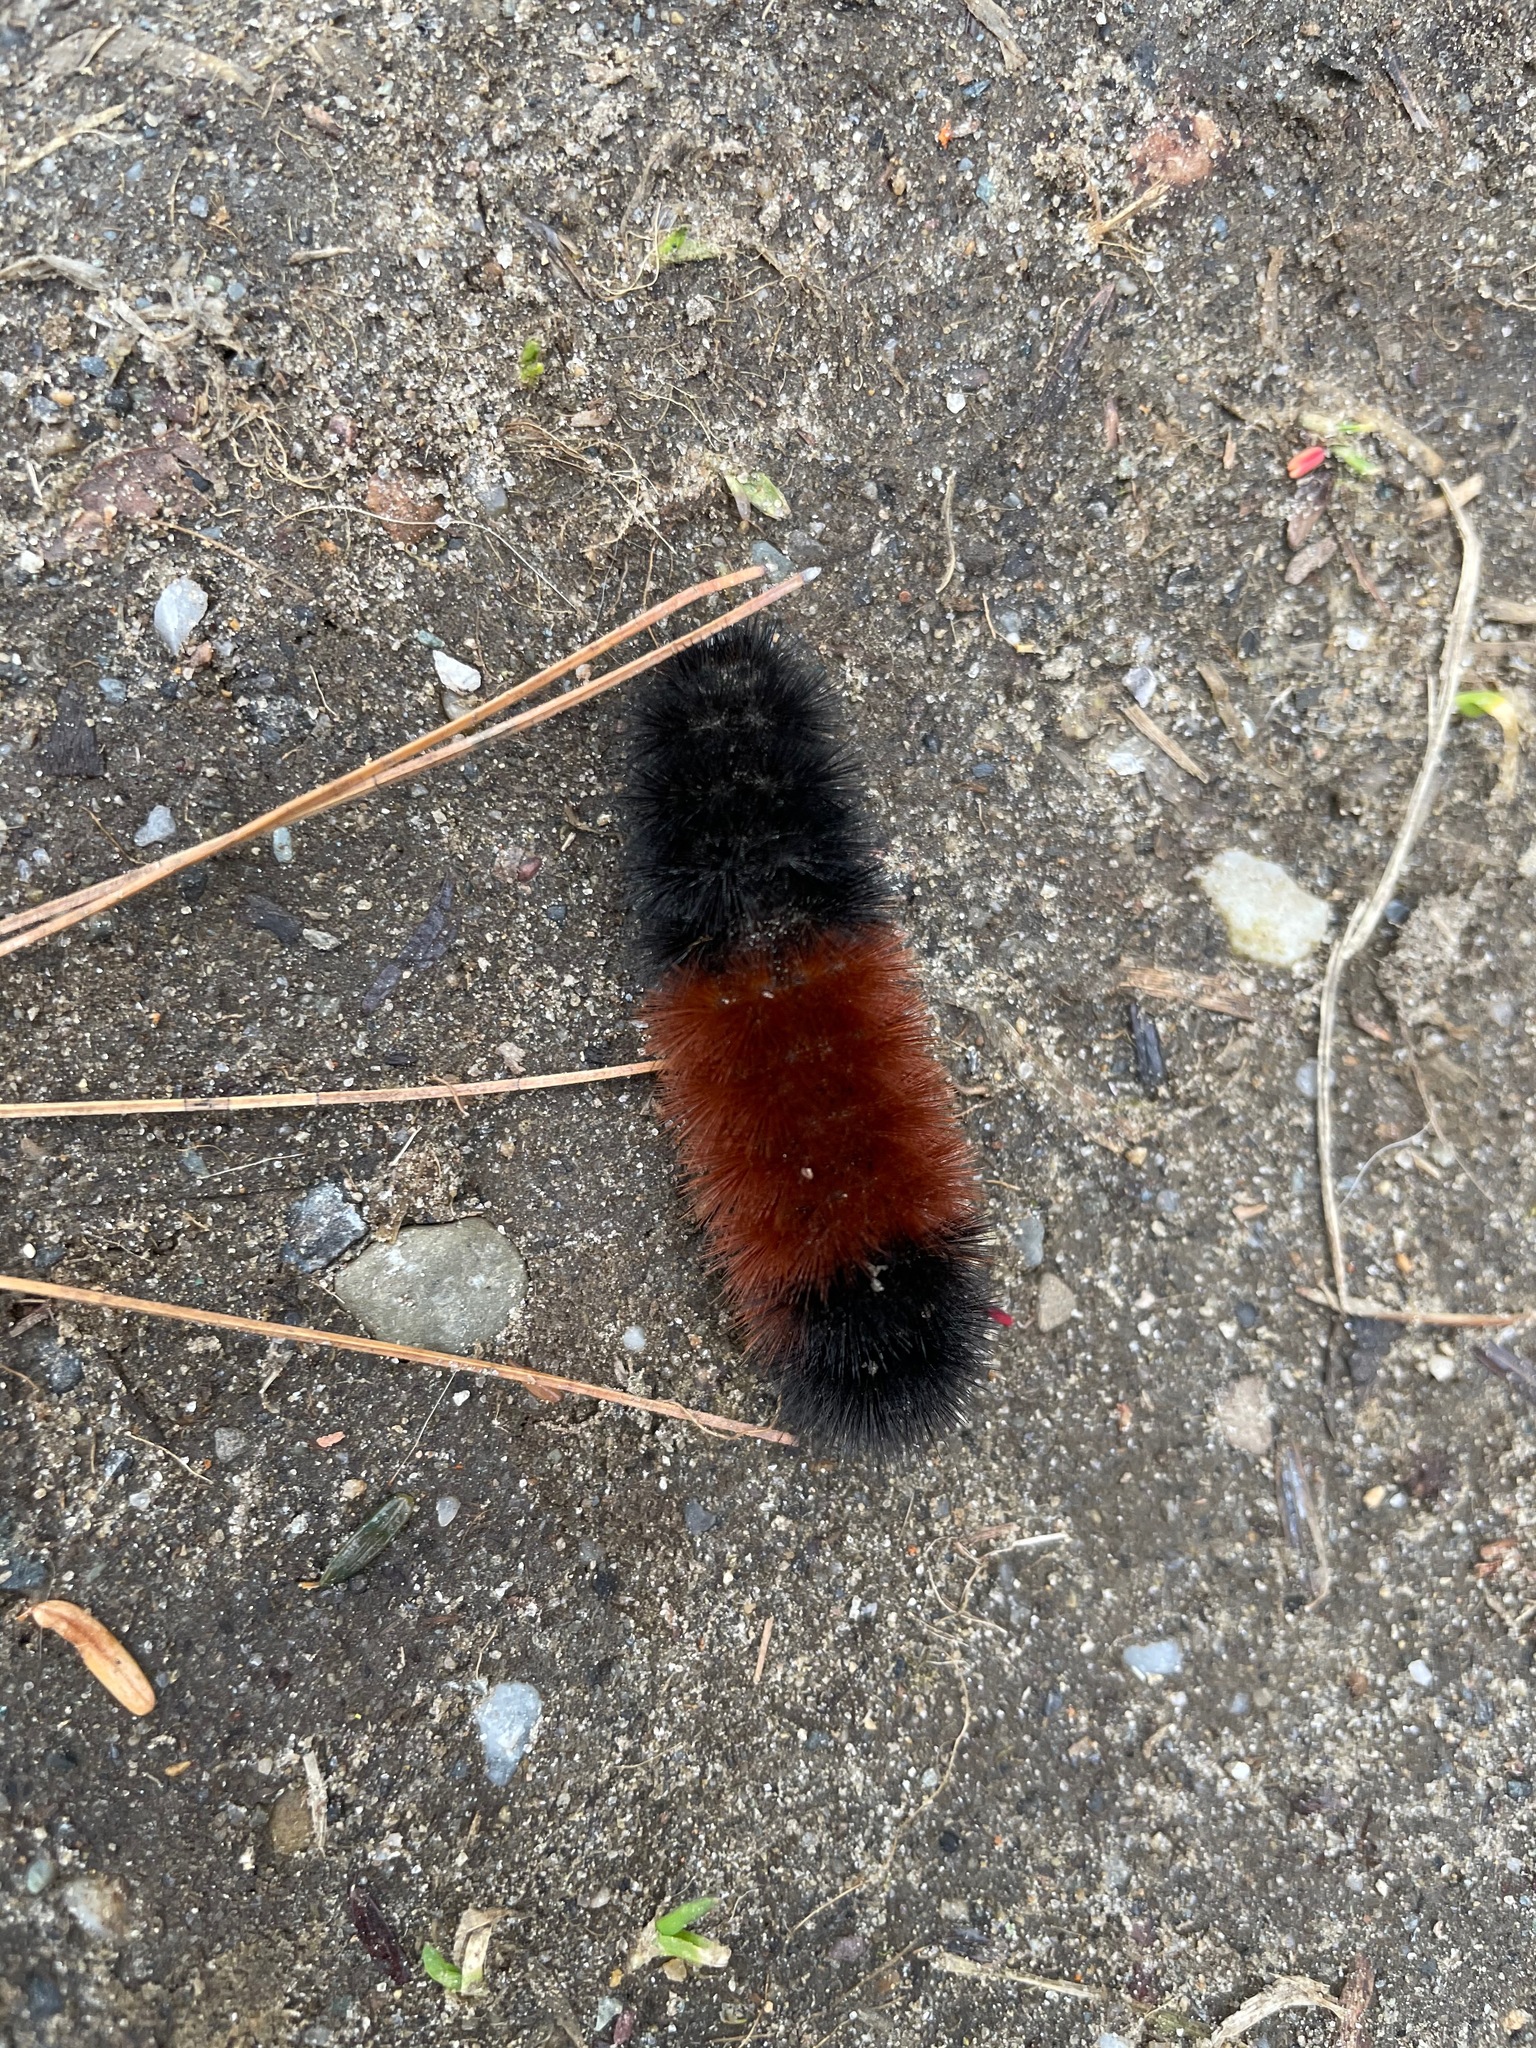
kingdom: Animalia
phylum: Arthropoda
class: Insecta
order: Lepidoptera
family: Erebidae
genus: Pyrrharctia
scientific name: Pyrrharctia isabella
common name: Isabella tiger moth
